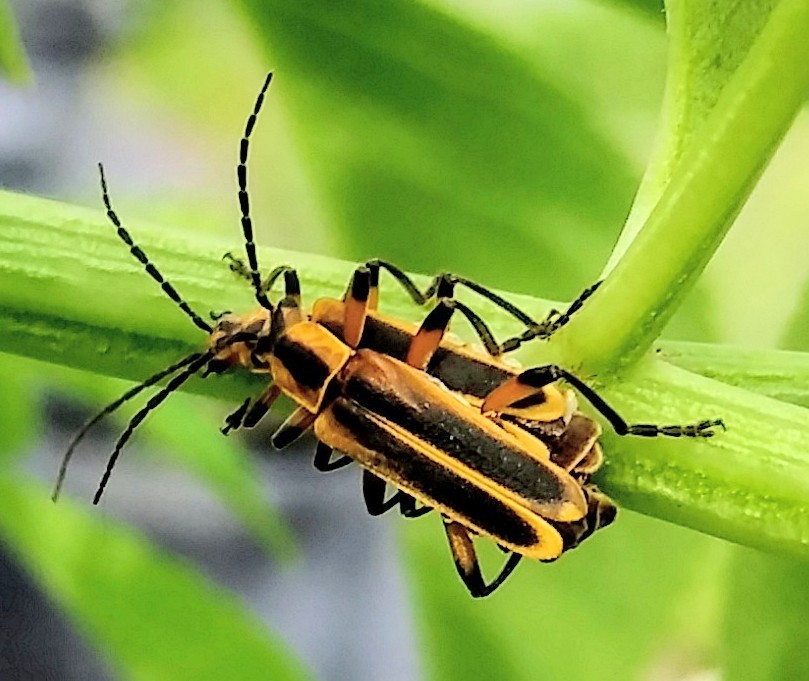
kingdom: Animalia
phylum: Arthropoda
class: Insecta
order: Coleoptera
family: Cantharidae
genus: Chauliognathus
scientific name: Chauliognathus marginatus
